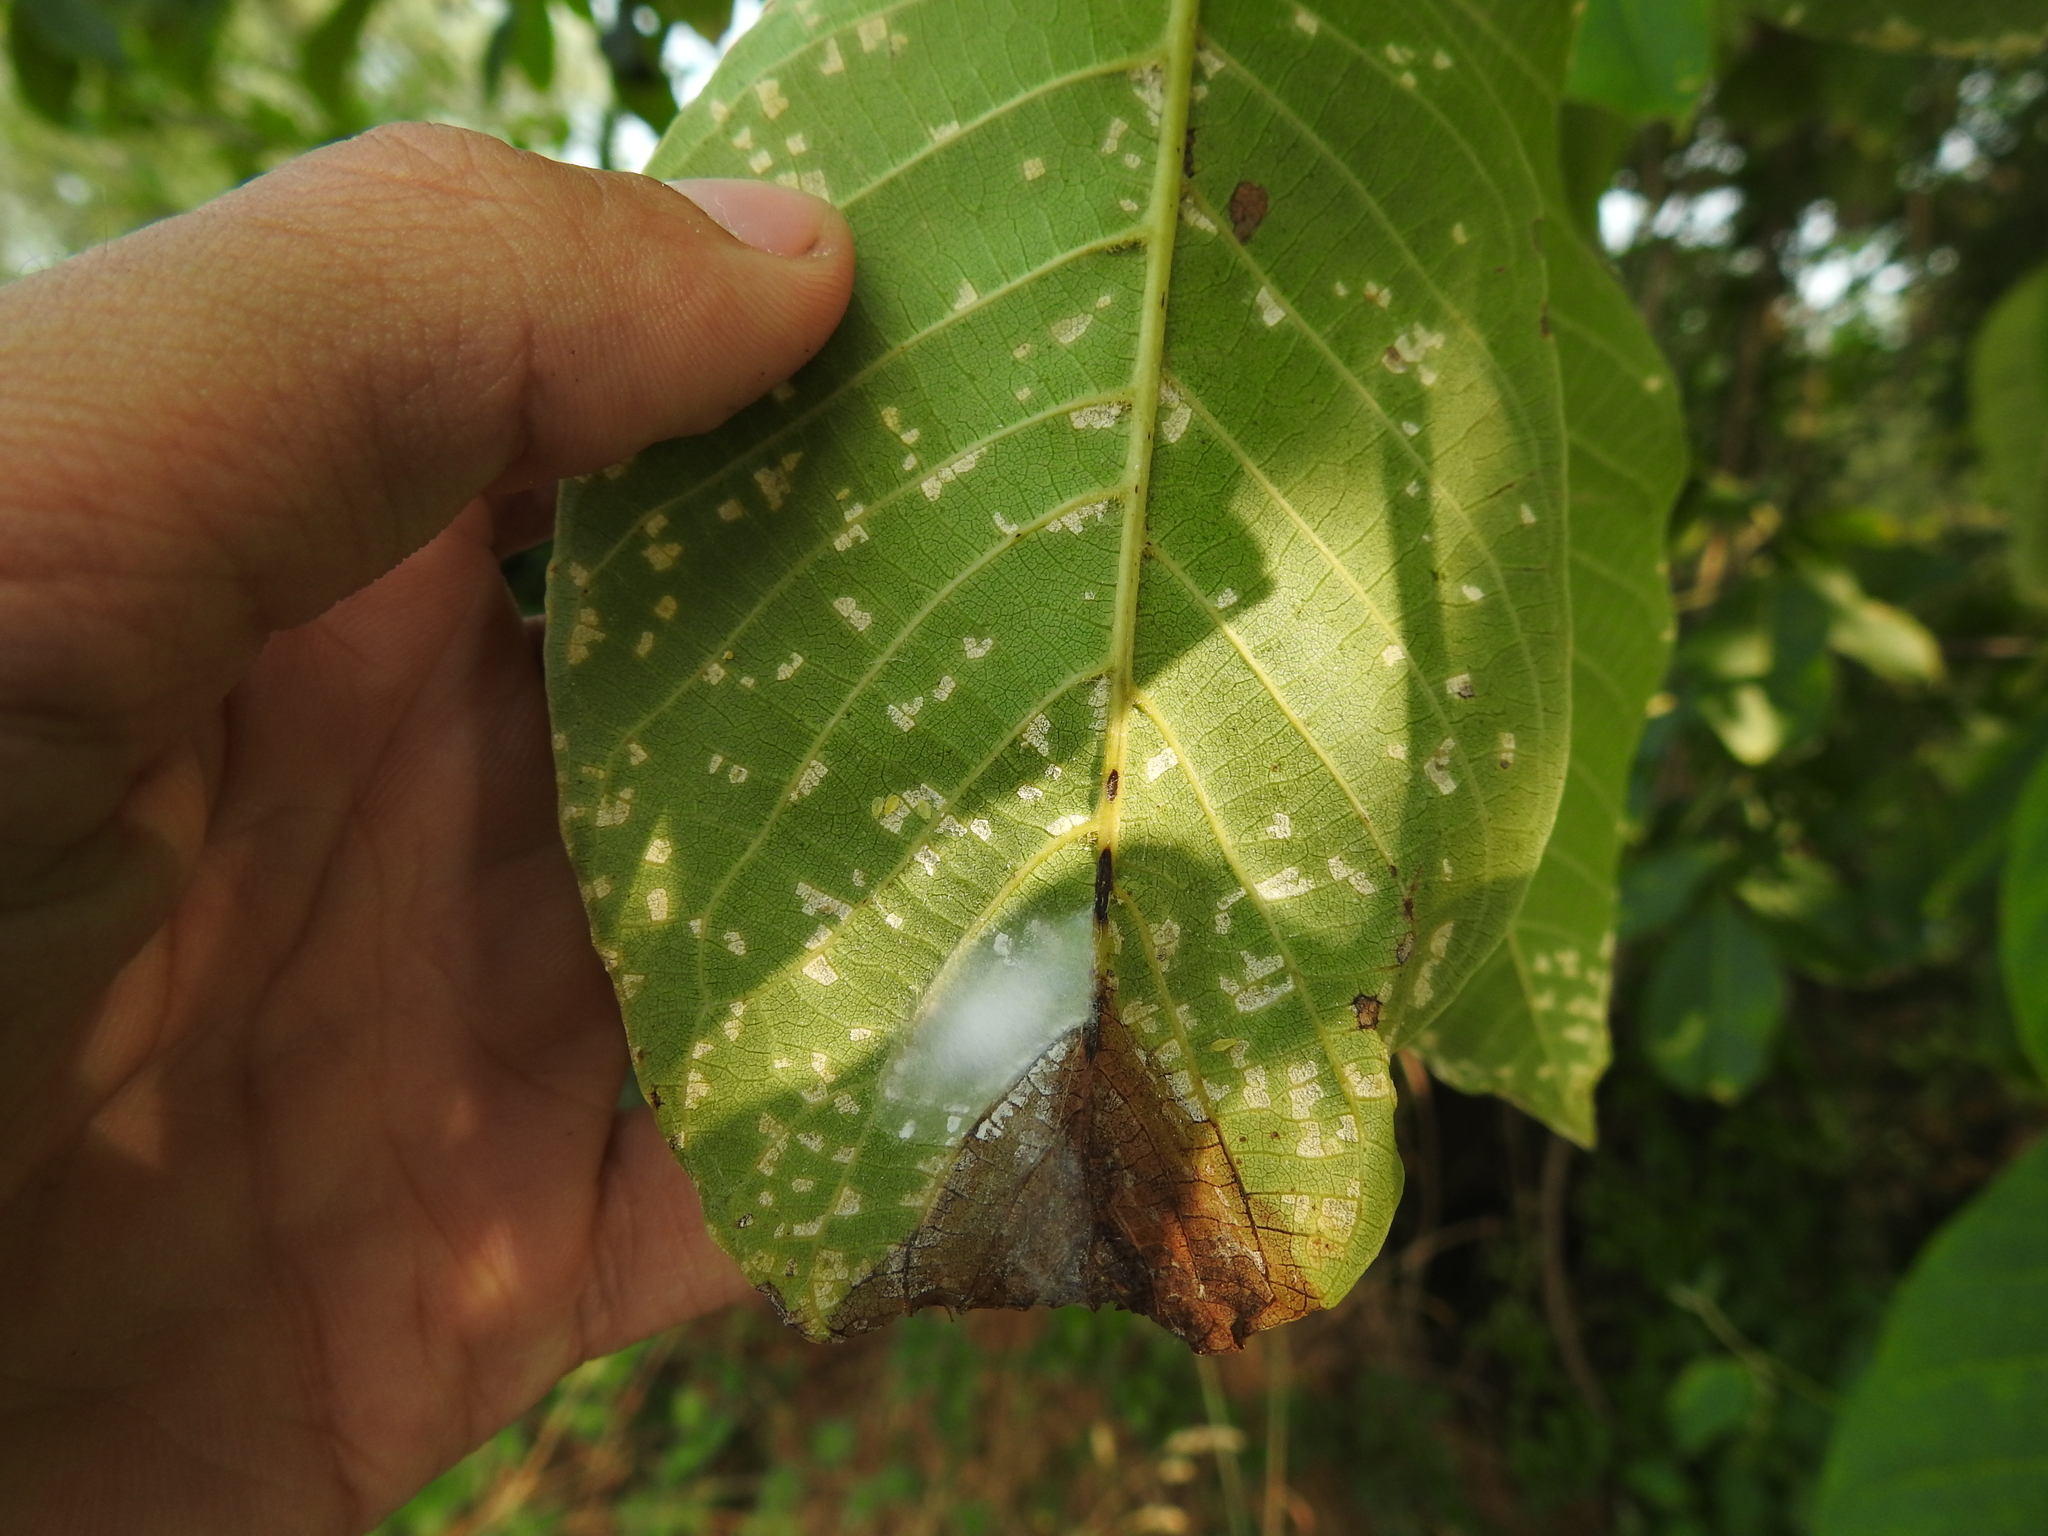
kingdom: Fungi
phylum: Basidiomycota
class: Exobasidiomycetes
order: Microstromatales
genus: Pseudomicrostroma
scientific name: Pseudomicrostroma juglandis
